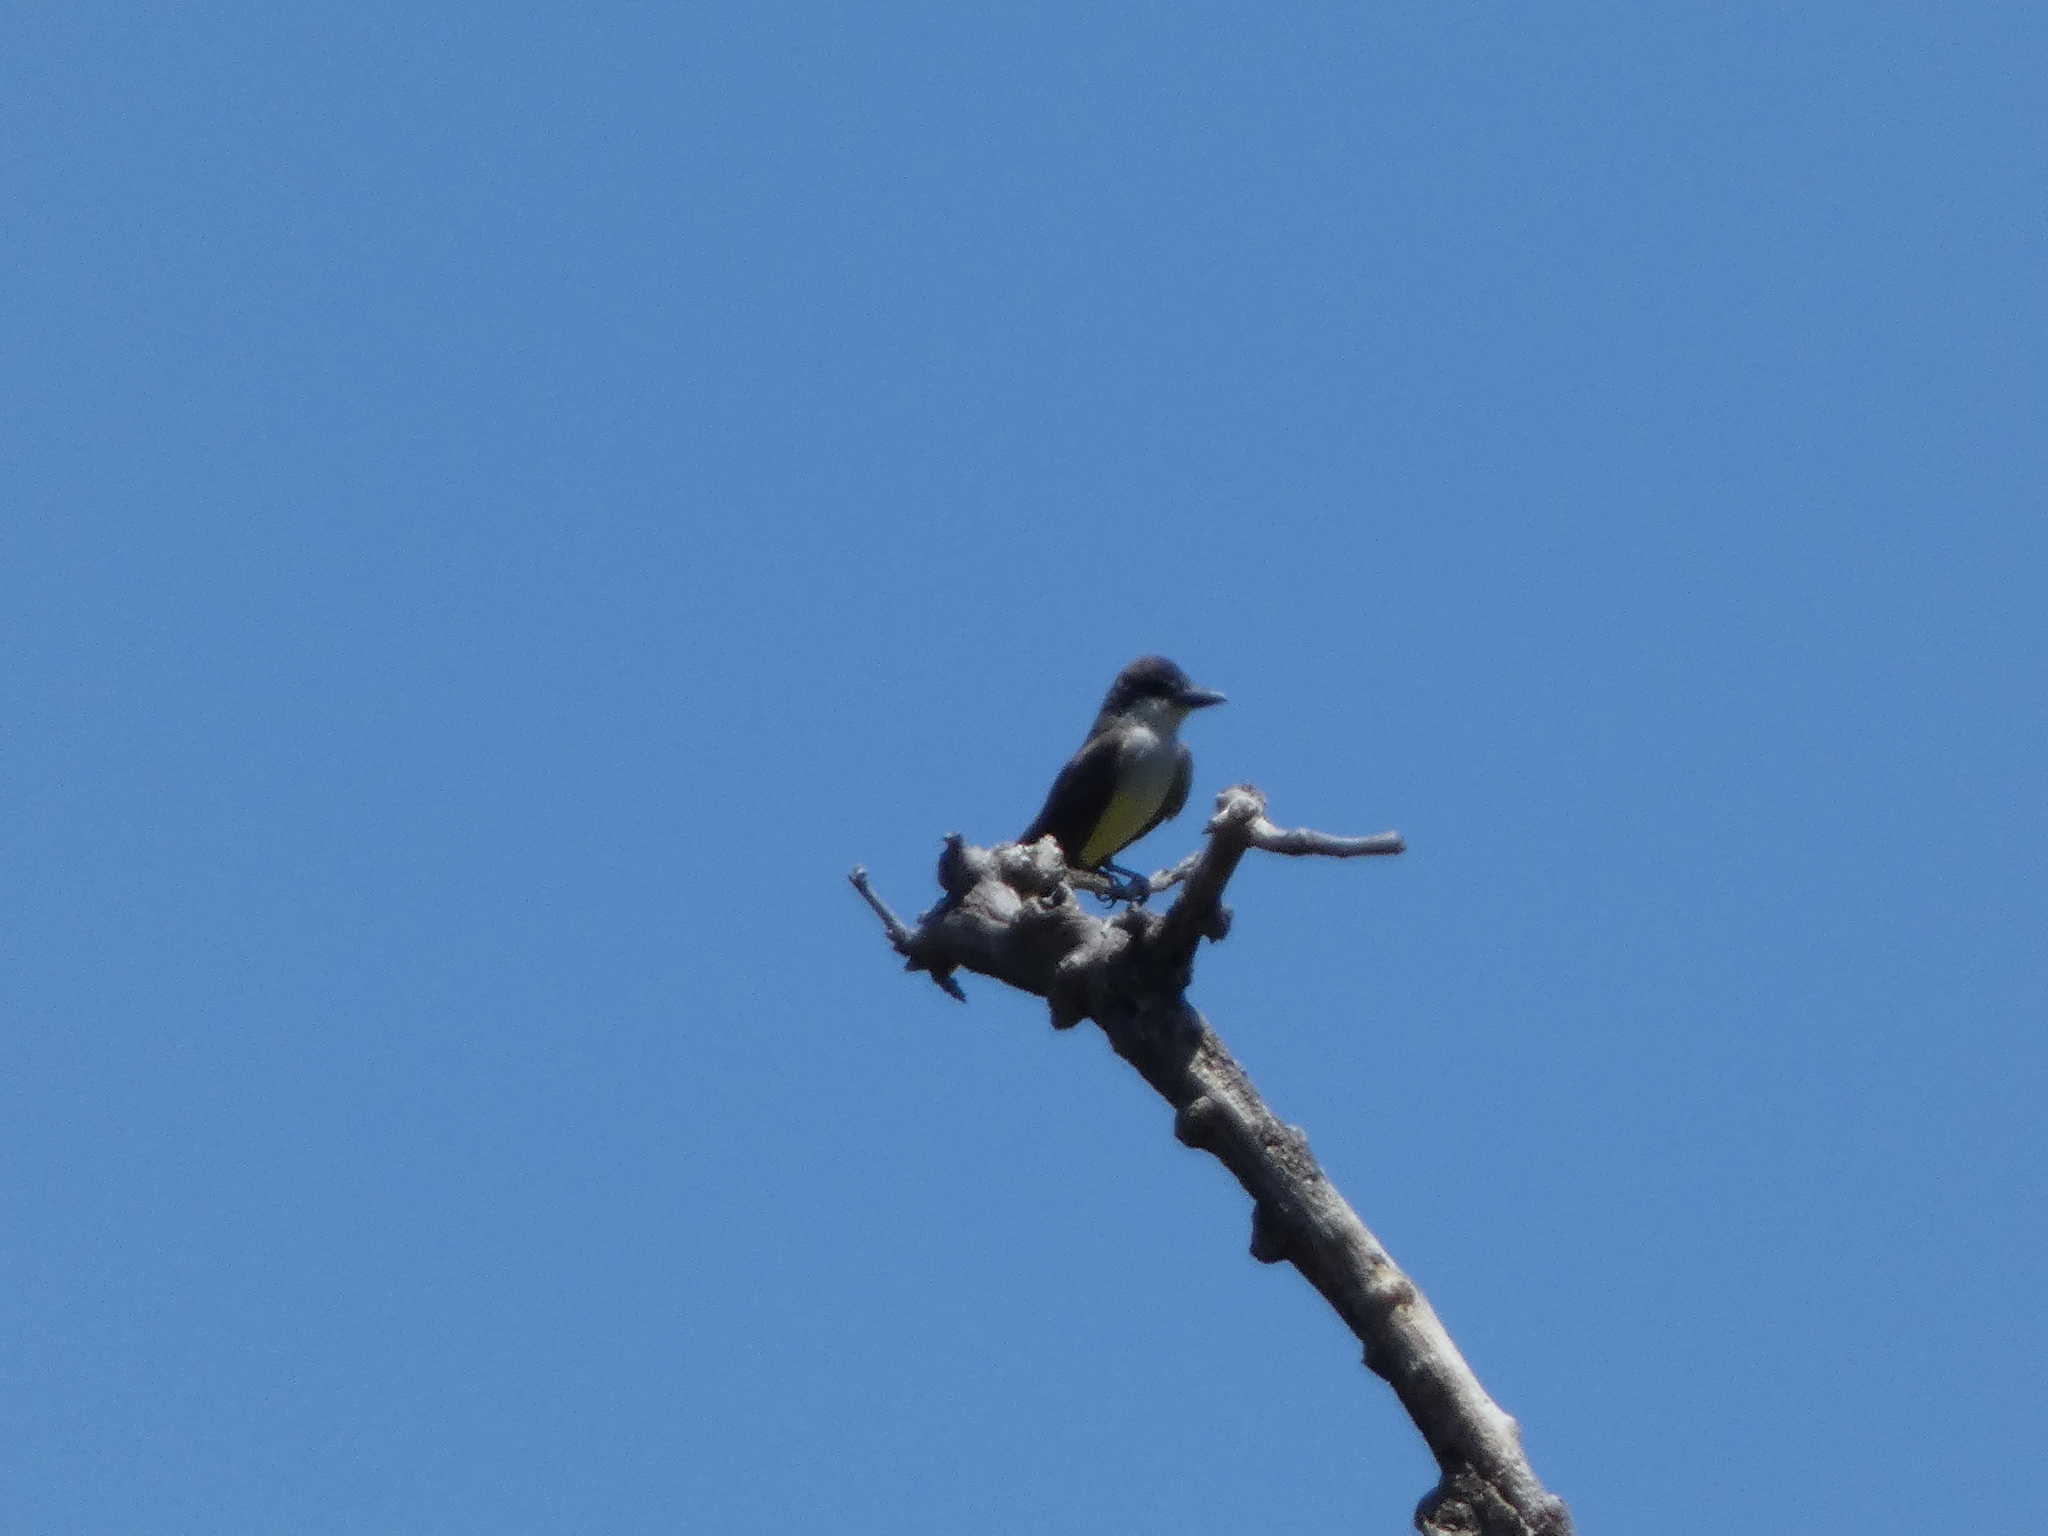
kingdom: Animalia
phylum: Chordata
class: Aves
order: Passeriformes
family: Tyrannidae
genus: Tyrannus
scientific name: Tyrannus crassirostris
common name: Thick-billed kingbird
